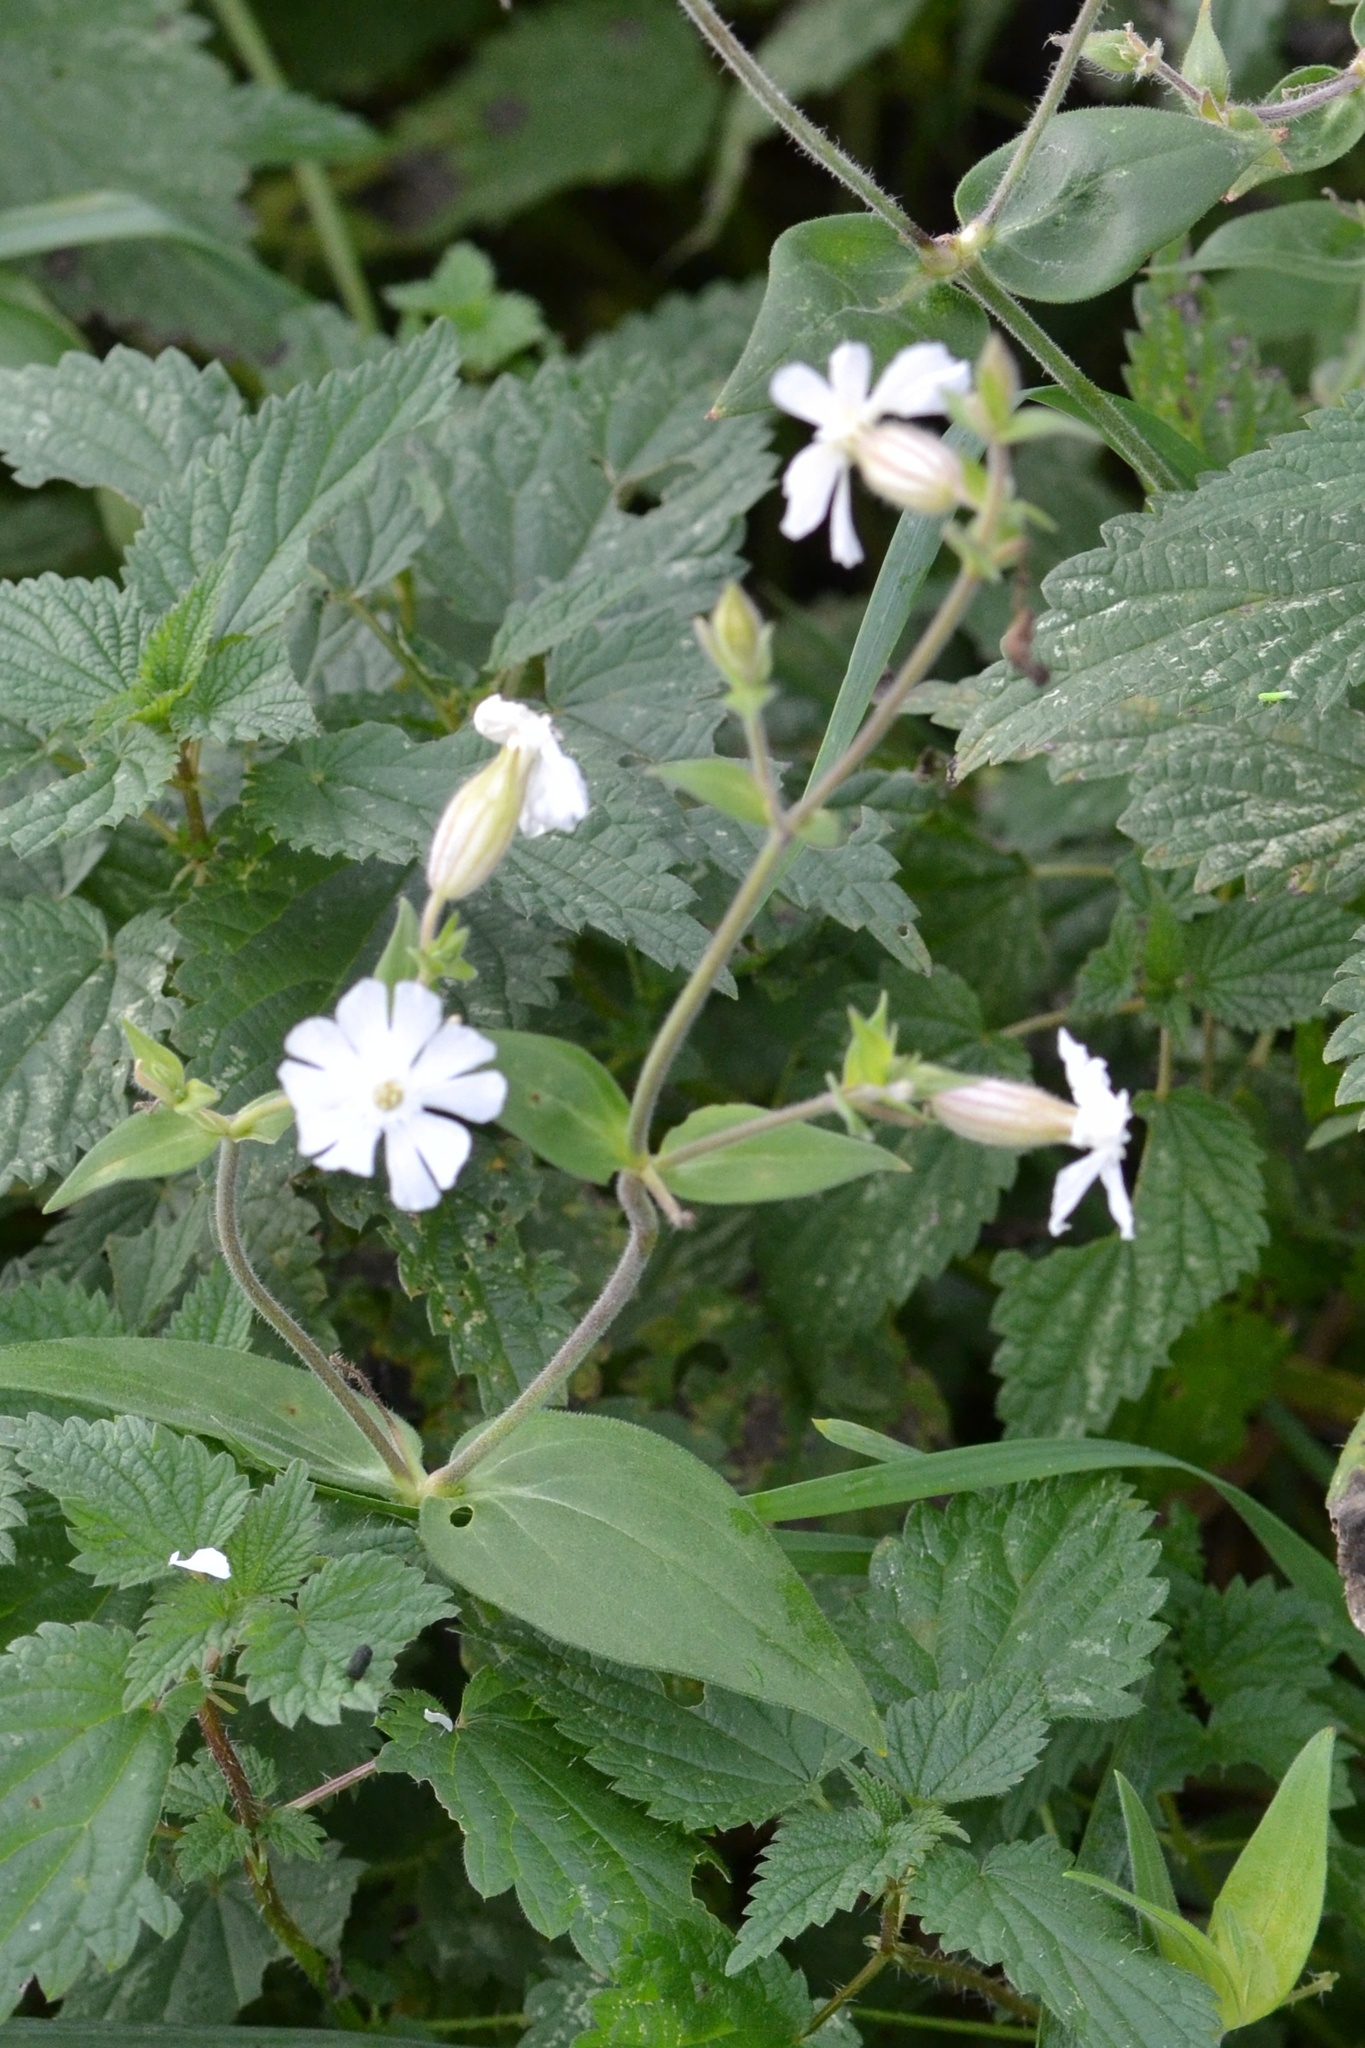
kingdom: Plantae
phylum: Tracheophyta
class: Magnoliopsida
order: Caryophyllales
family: Caryophyllaceae
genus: Silene
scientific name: Silene latifolia
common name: White campion
